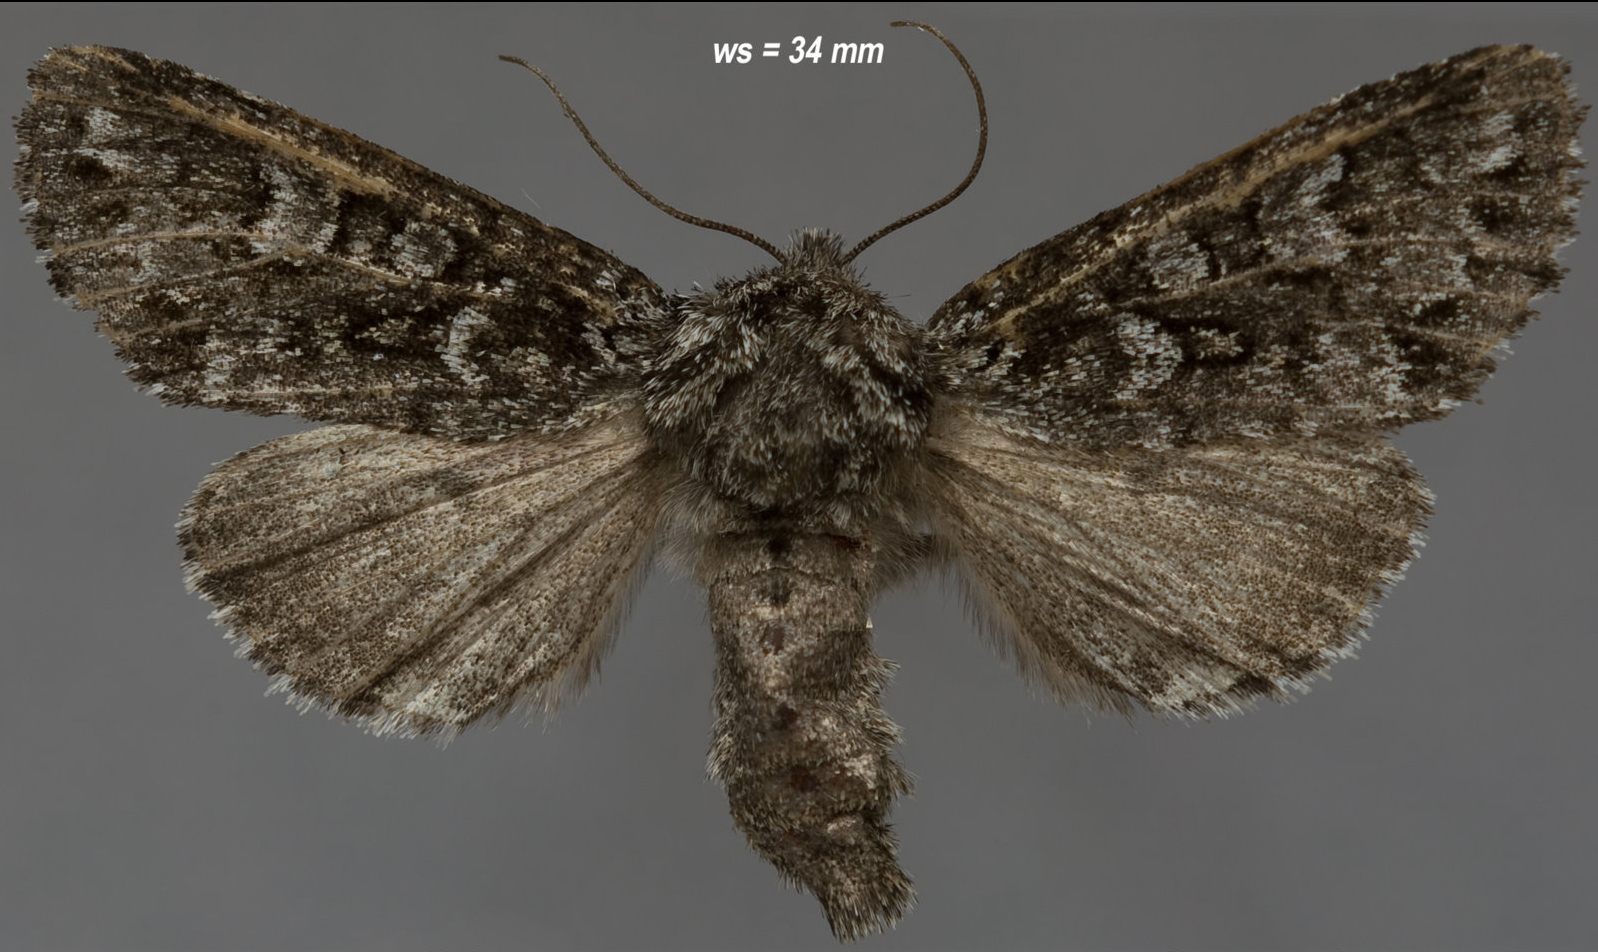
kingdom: Animalia
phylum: Arthropoda
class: Insecta
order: Lepidoptera
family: Noctuidae
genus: Lasionycta
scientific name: Lasionycta taigata
